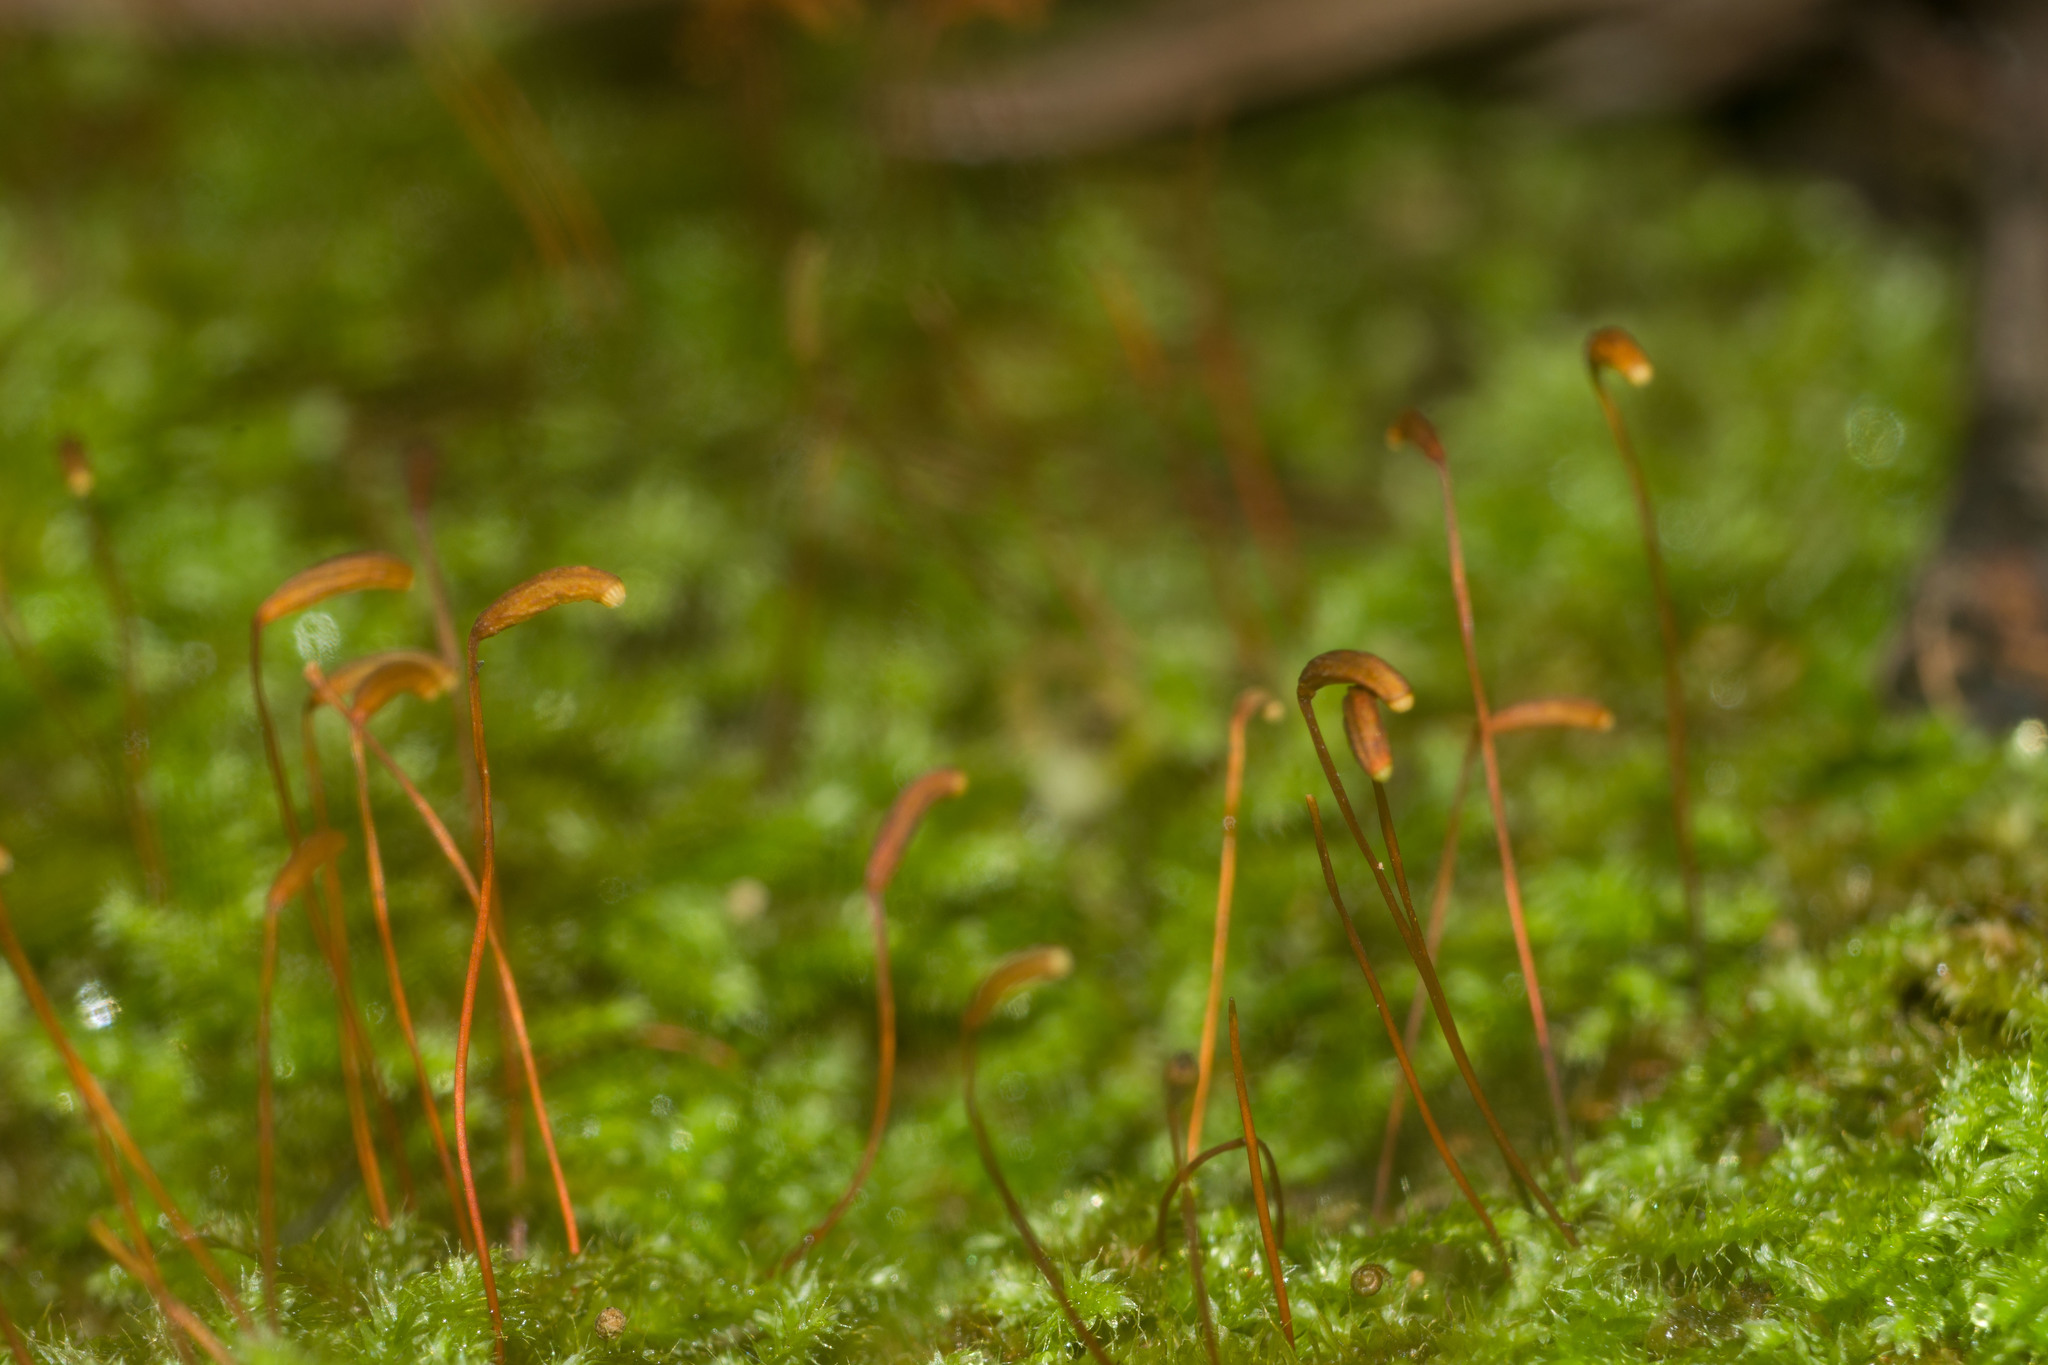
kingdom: Plantae
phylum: Bryophyta
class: Bryopsida
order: Hypnodendrales
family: Racopilaceae
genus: Racopilum
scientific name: Racopilum cuspidigerum
